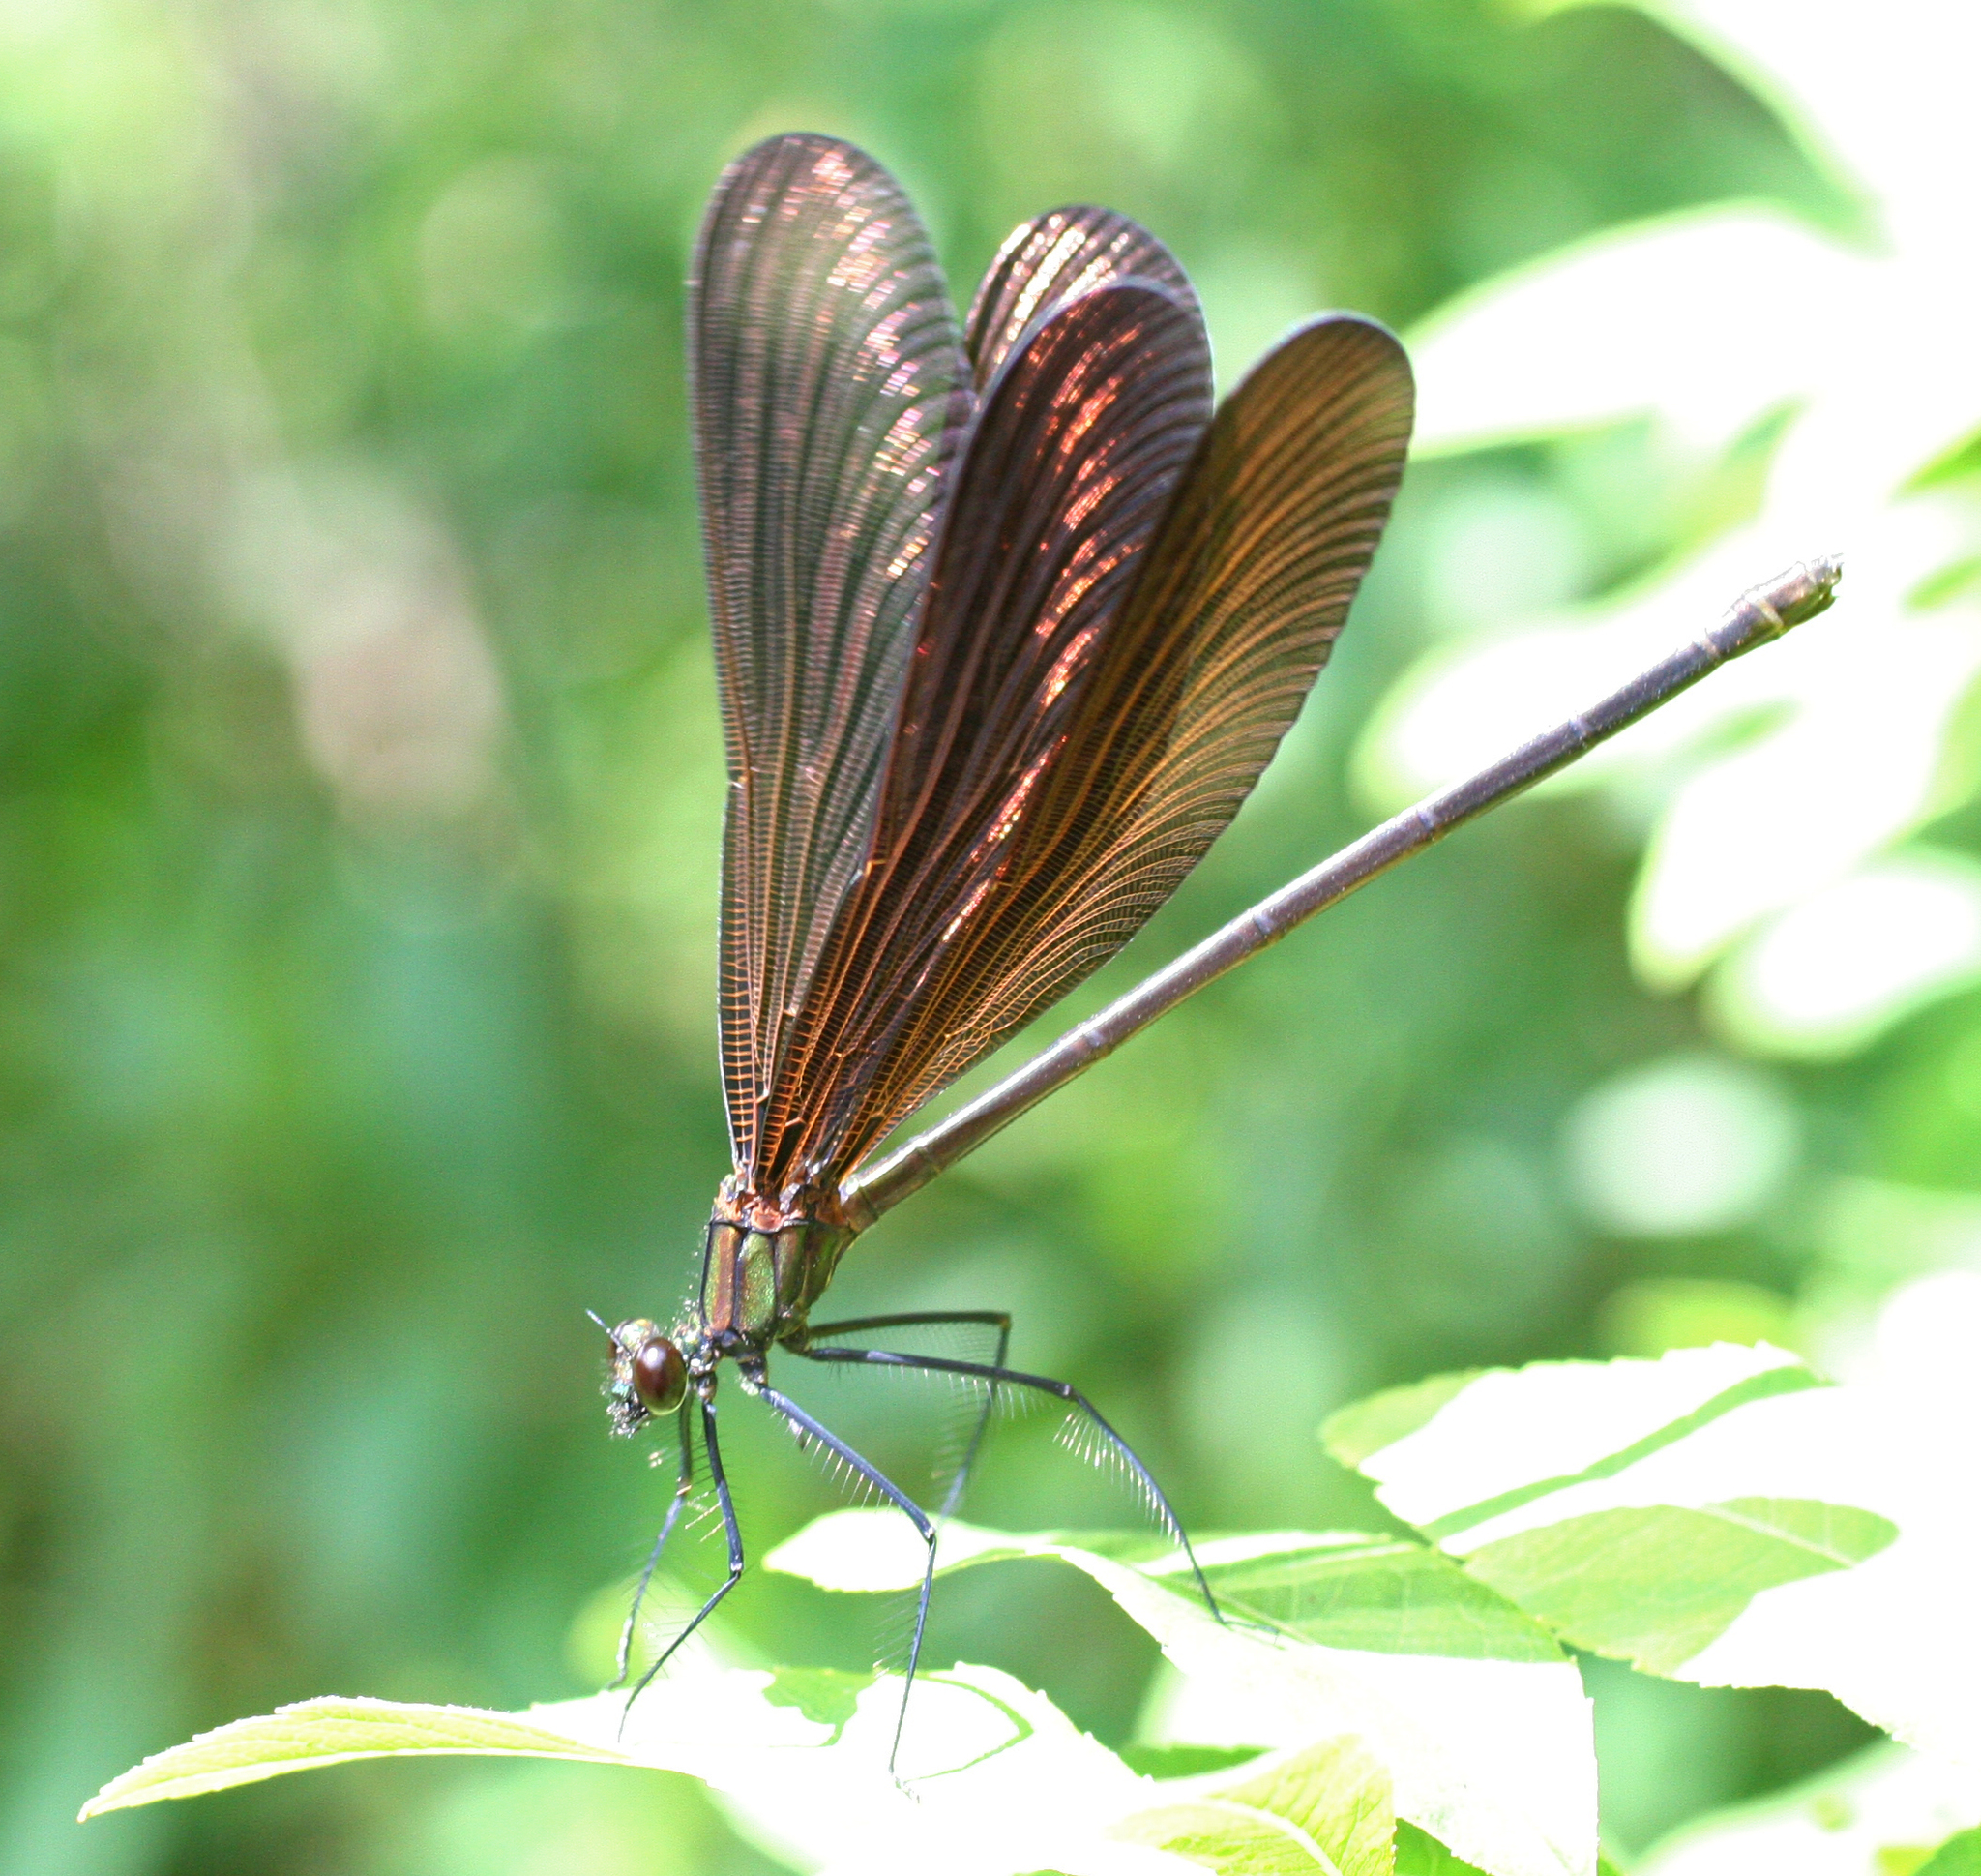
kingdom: Animalia
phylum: Arthropoda
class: Insecta
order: Odonata
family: Calopterygidae
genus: Atrocalopteryx
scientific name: Atrocalopteryx atrata
